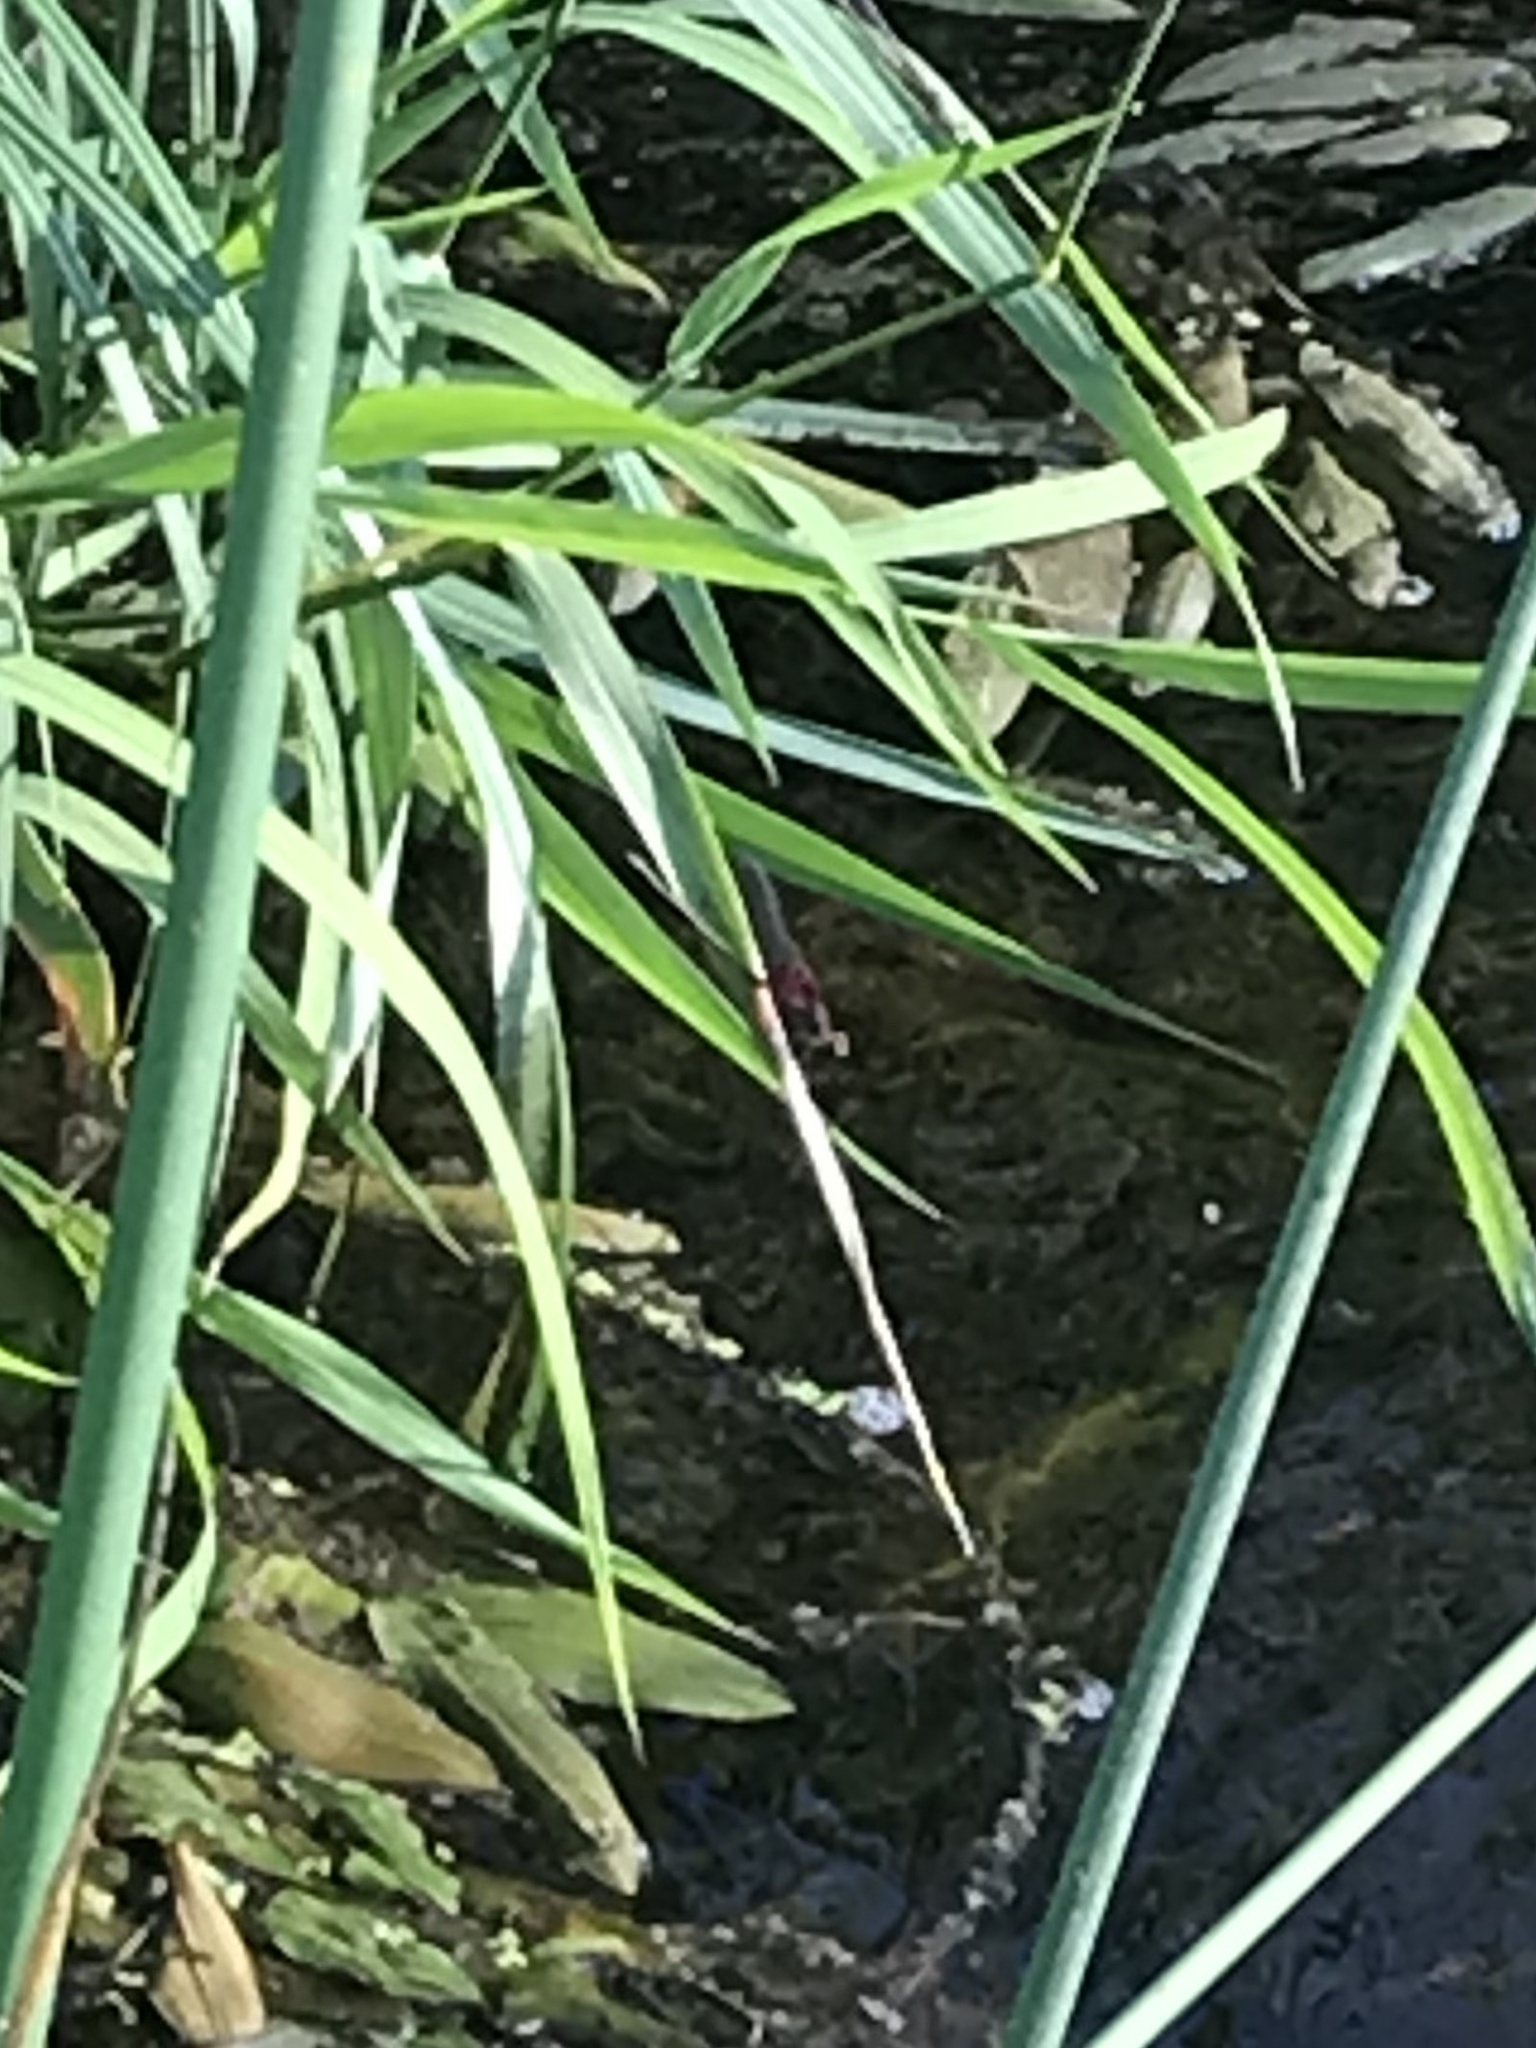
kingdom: Animalia
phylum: Arthropoda
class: Insecta
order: Odonata
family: Calopterygidae
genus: Hetaerina
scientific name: Hetaerina americana
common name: American rubyspot
